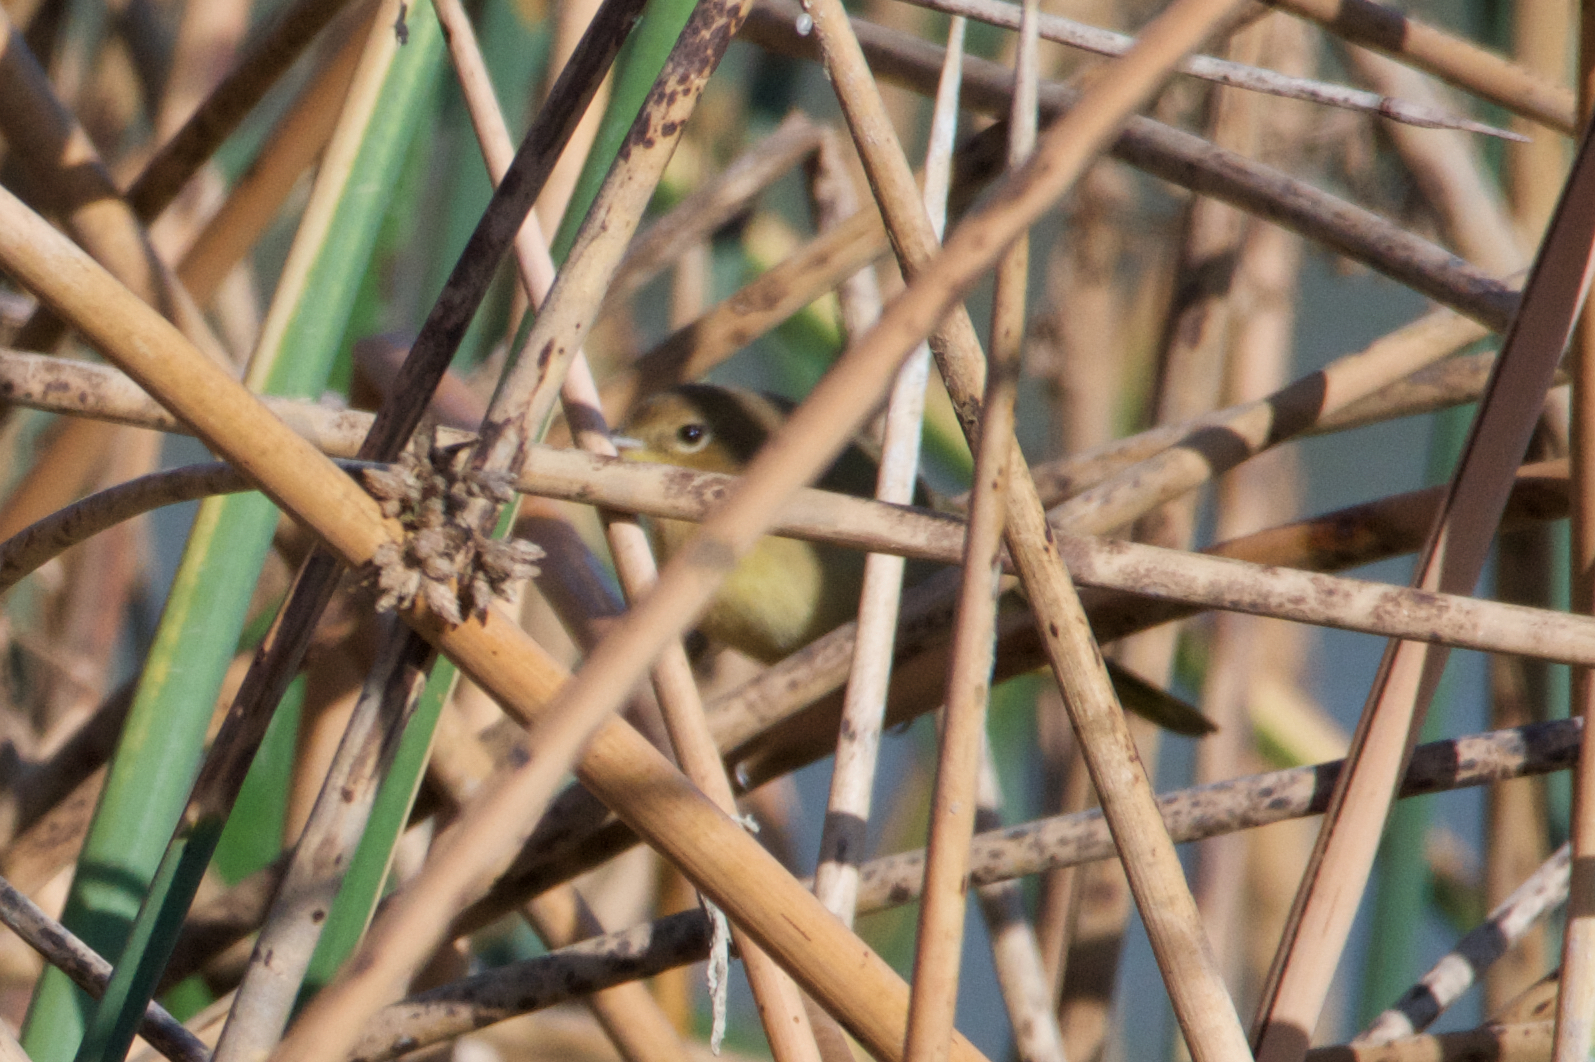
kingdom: Animalia
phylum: Chordata
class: Aves
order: Passeriformes
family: Parulidae
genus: Geothlypis
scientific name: Geothlypis trichas
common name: Common yellowthroat
